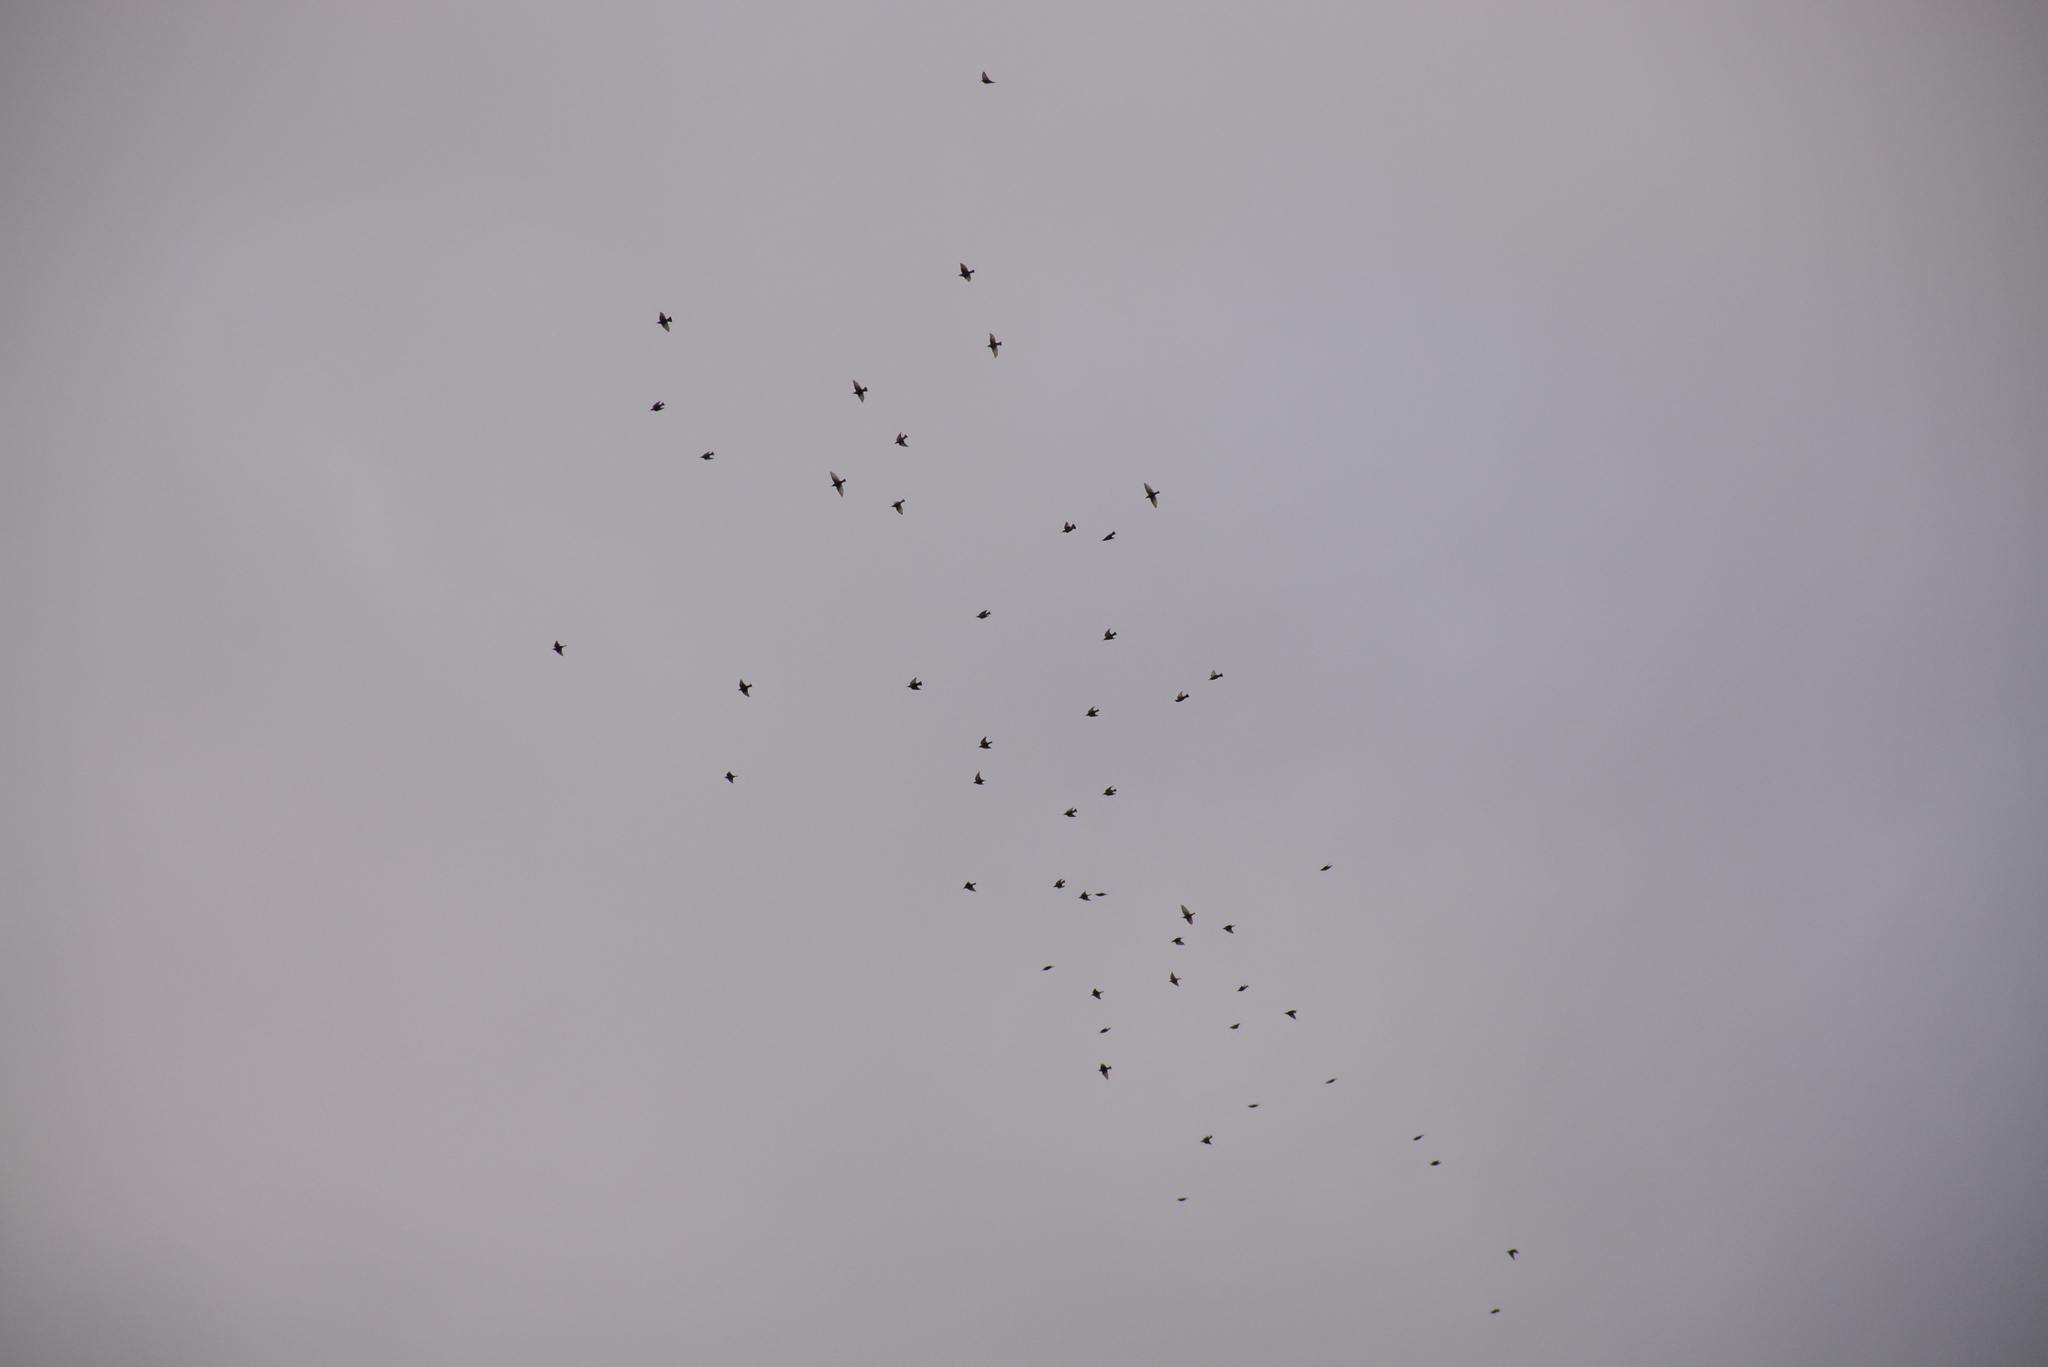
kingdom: Animalia
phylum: Chordata
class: Aves
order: Passeriformes
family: Sturnidae
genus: Sturnus
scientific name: Sturnus vulgaris
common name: Common starling
